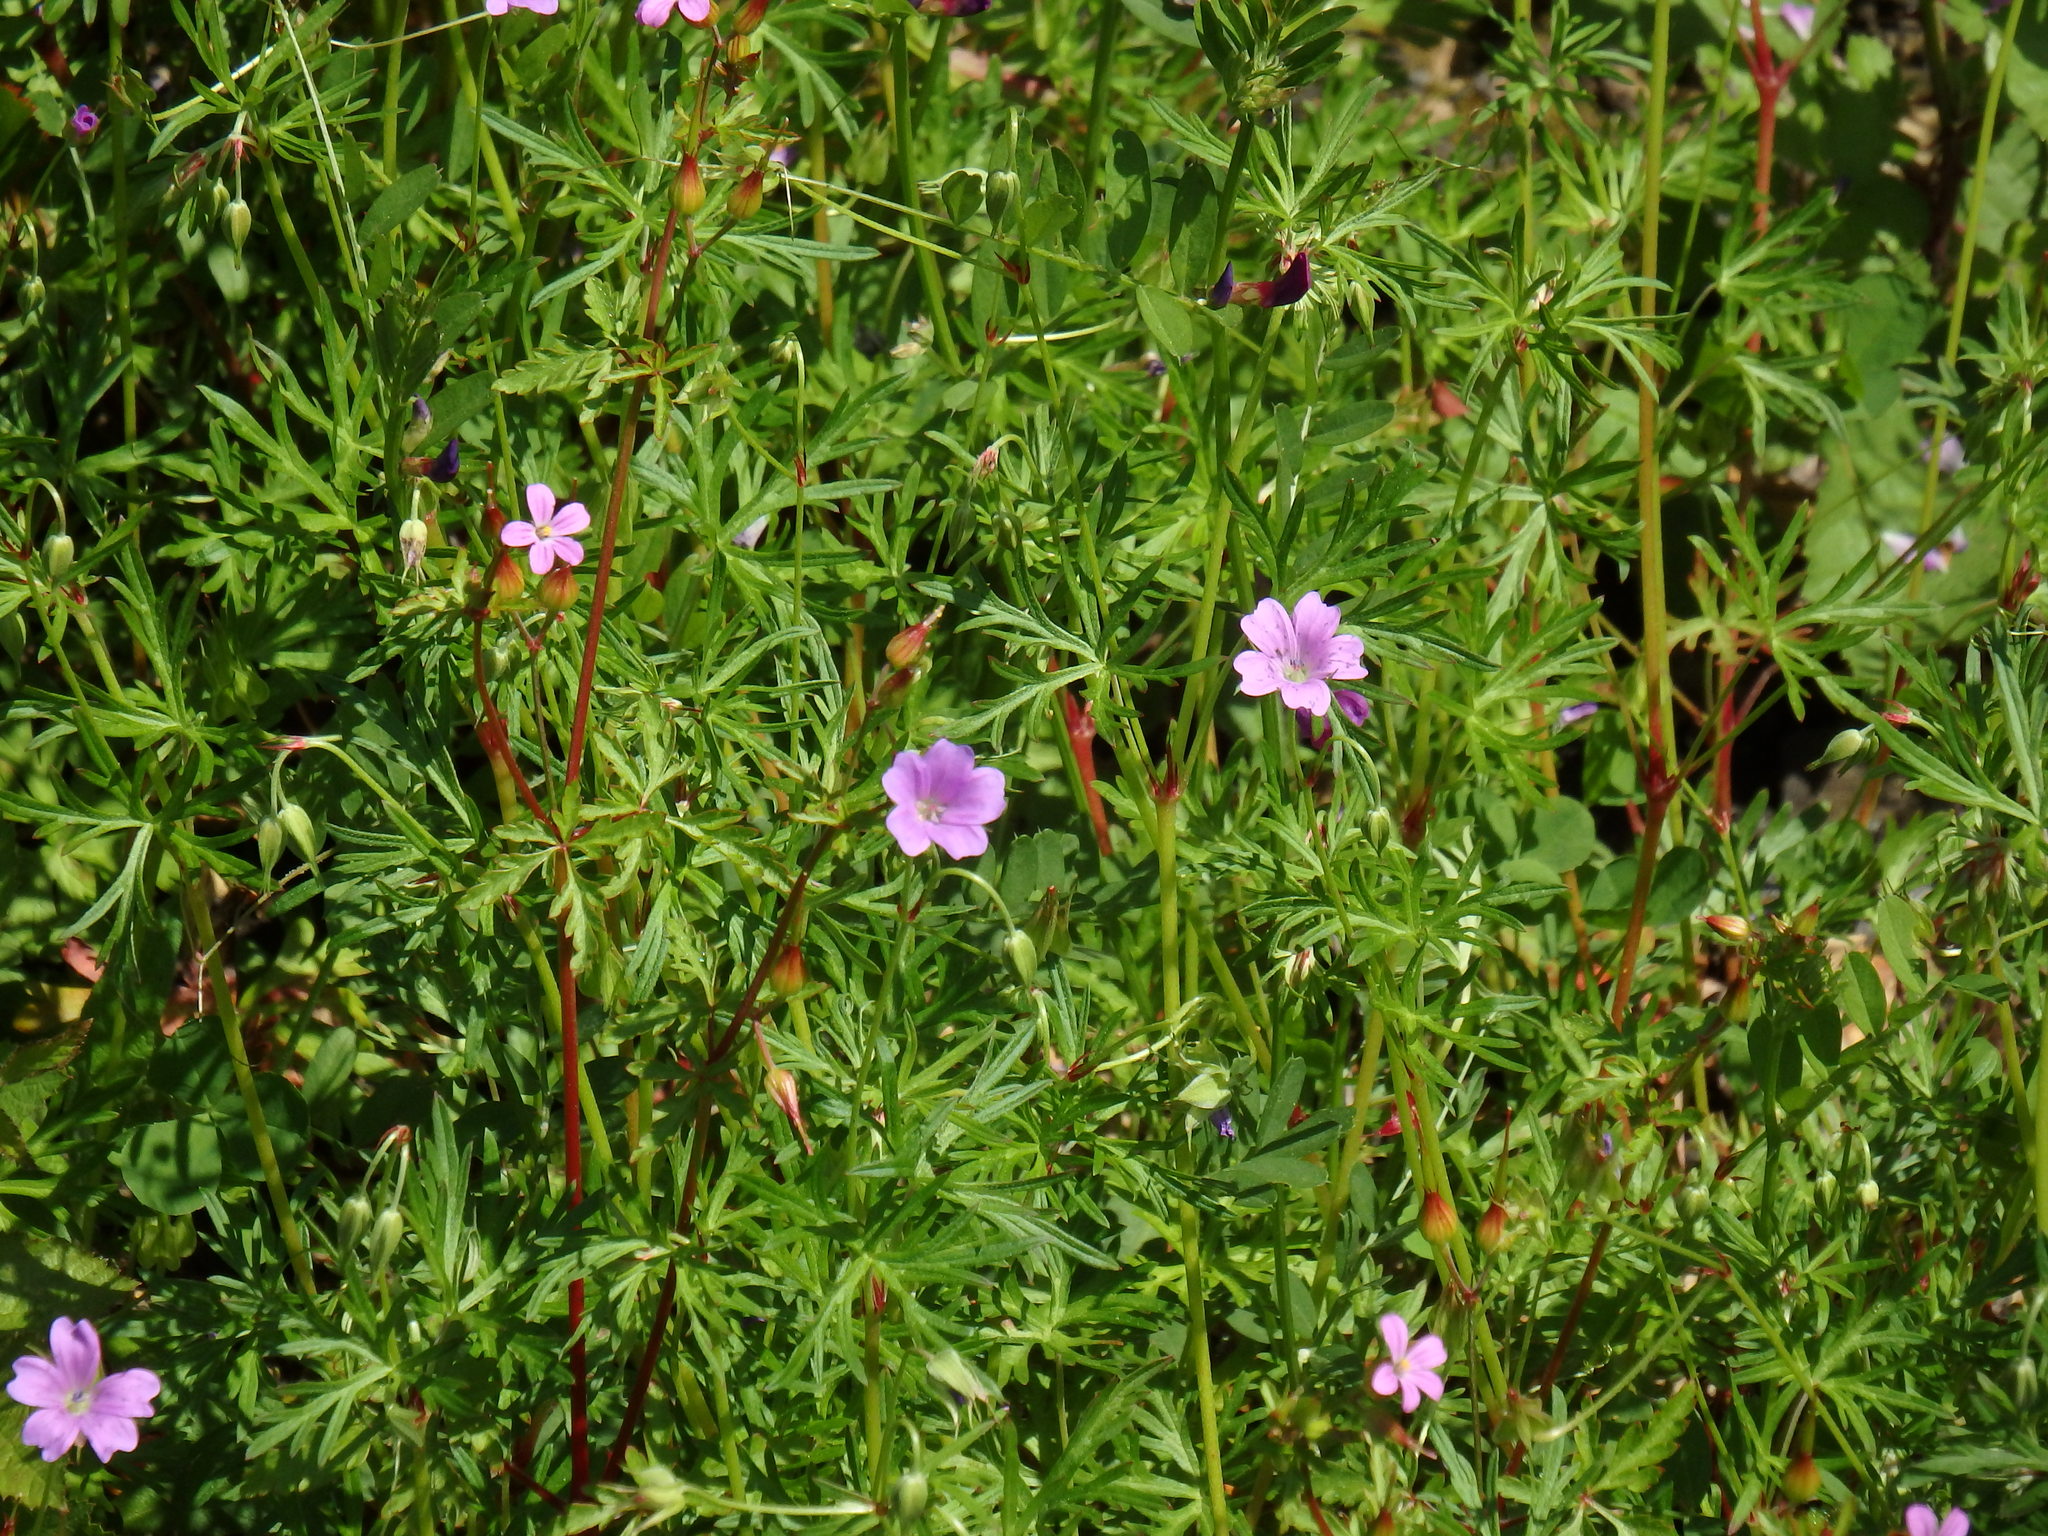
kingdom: Plantae
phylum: Tracheophyta
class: Magnoliopsida
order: Geraniales
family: Geraniaceae
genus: Geranium
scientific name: Geranium columbinum
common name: Long-stalked crane's-bill
